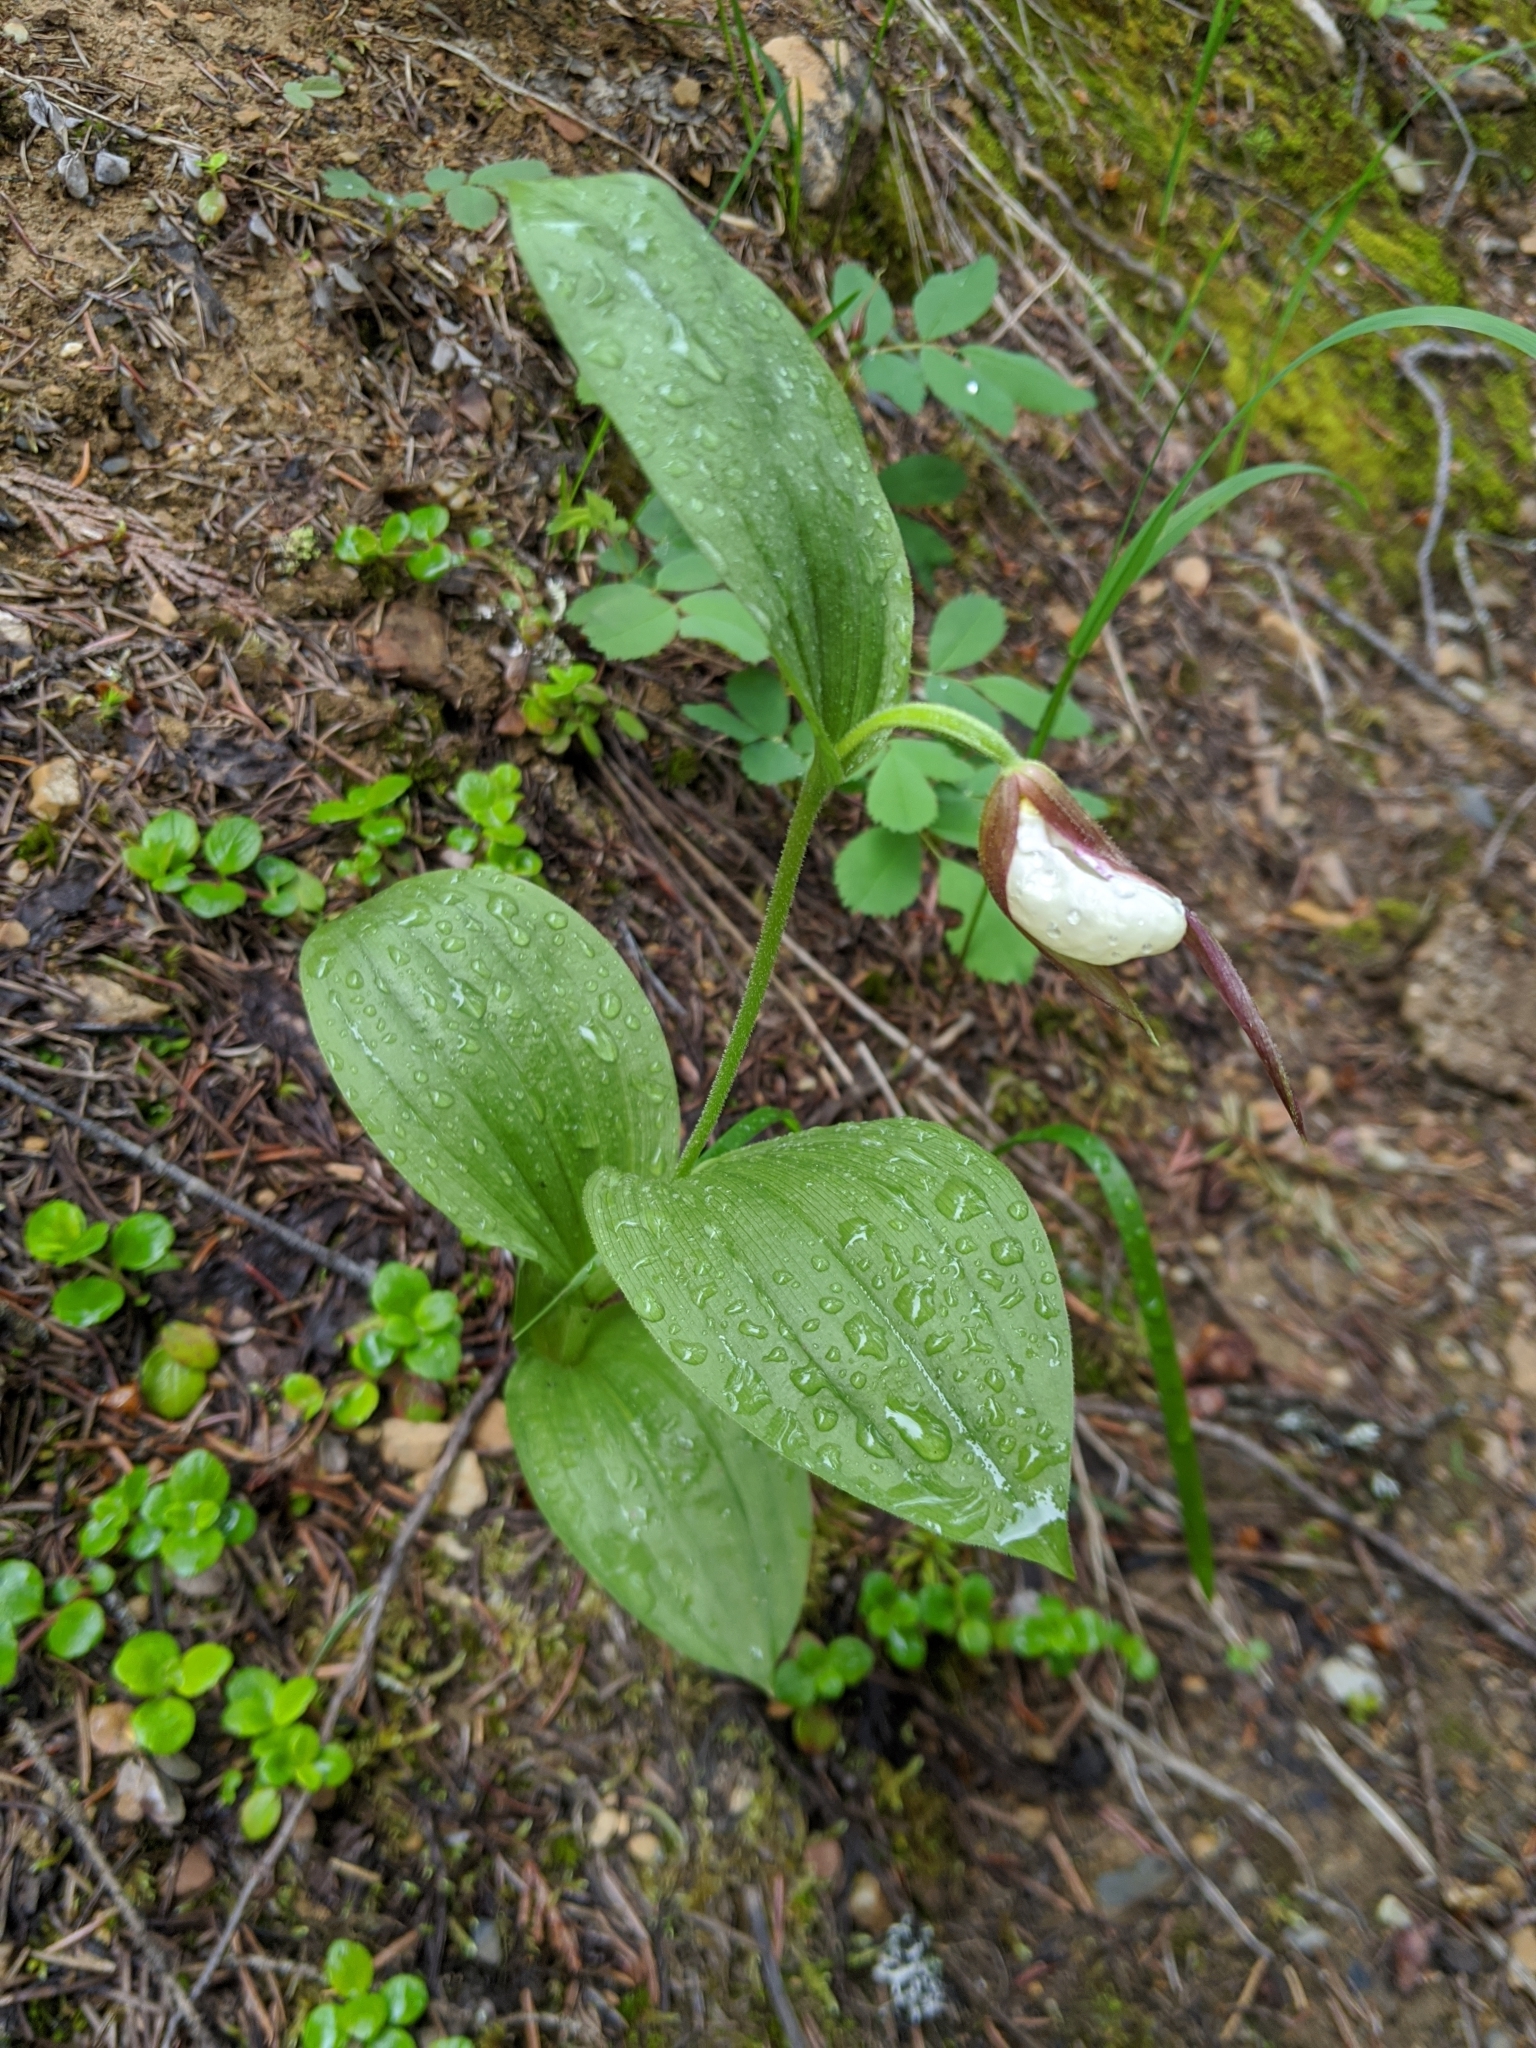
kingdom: Plantae
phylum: Tracheophyta
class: Liliopsida
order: Asparagales
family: Orchidaceae
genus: Cypripedium
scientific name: Cypripedium montanum
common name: Mountain lady's-slipper
